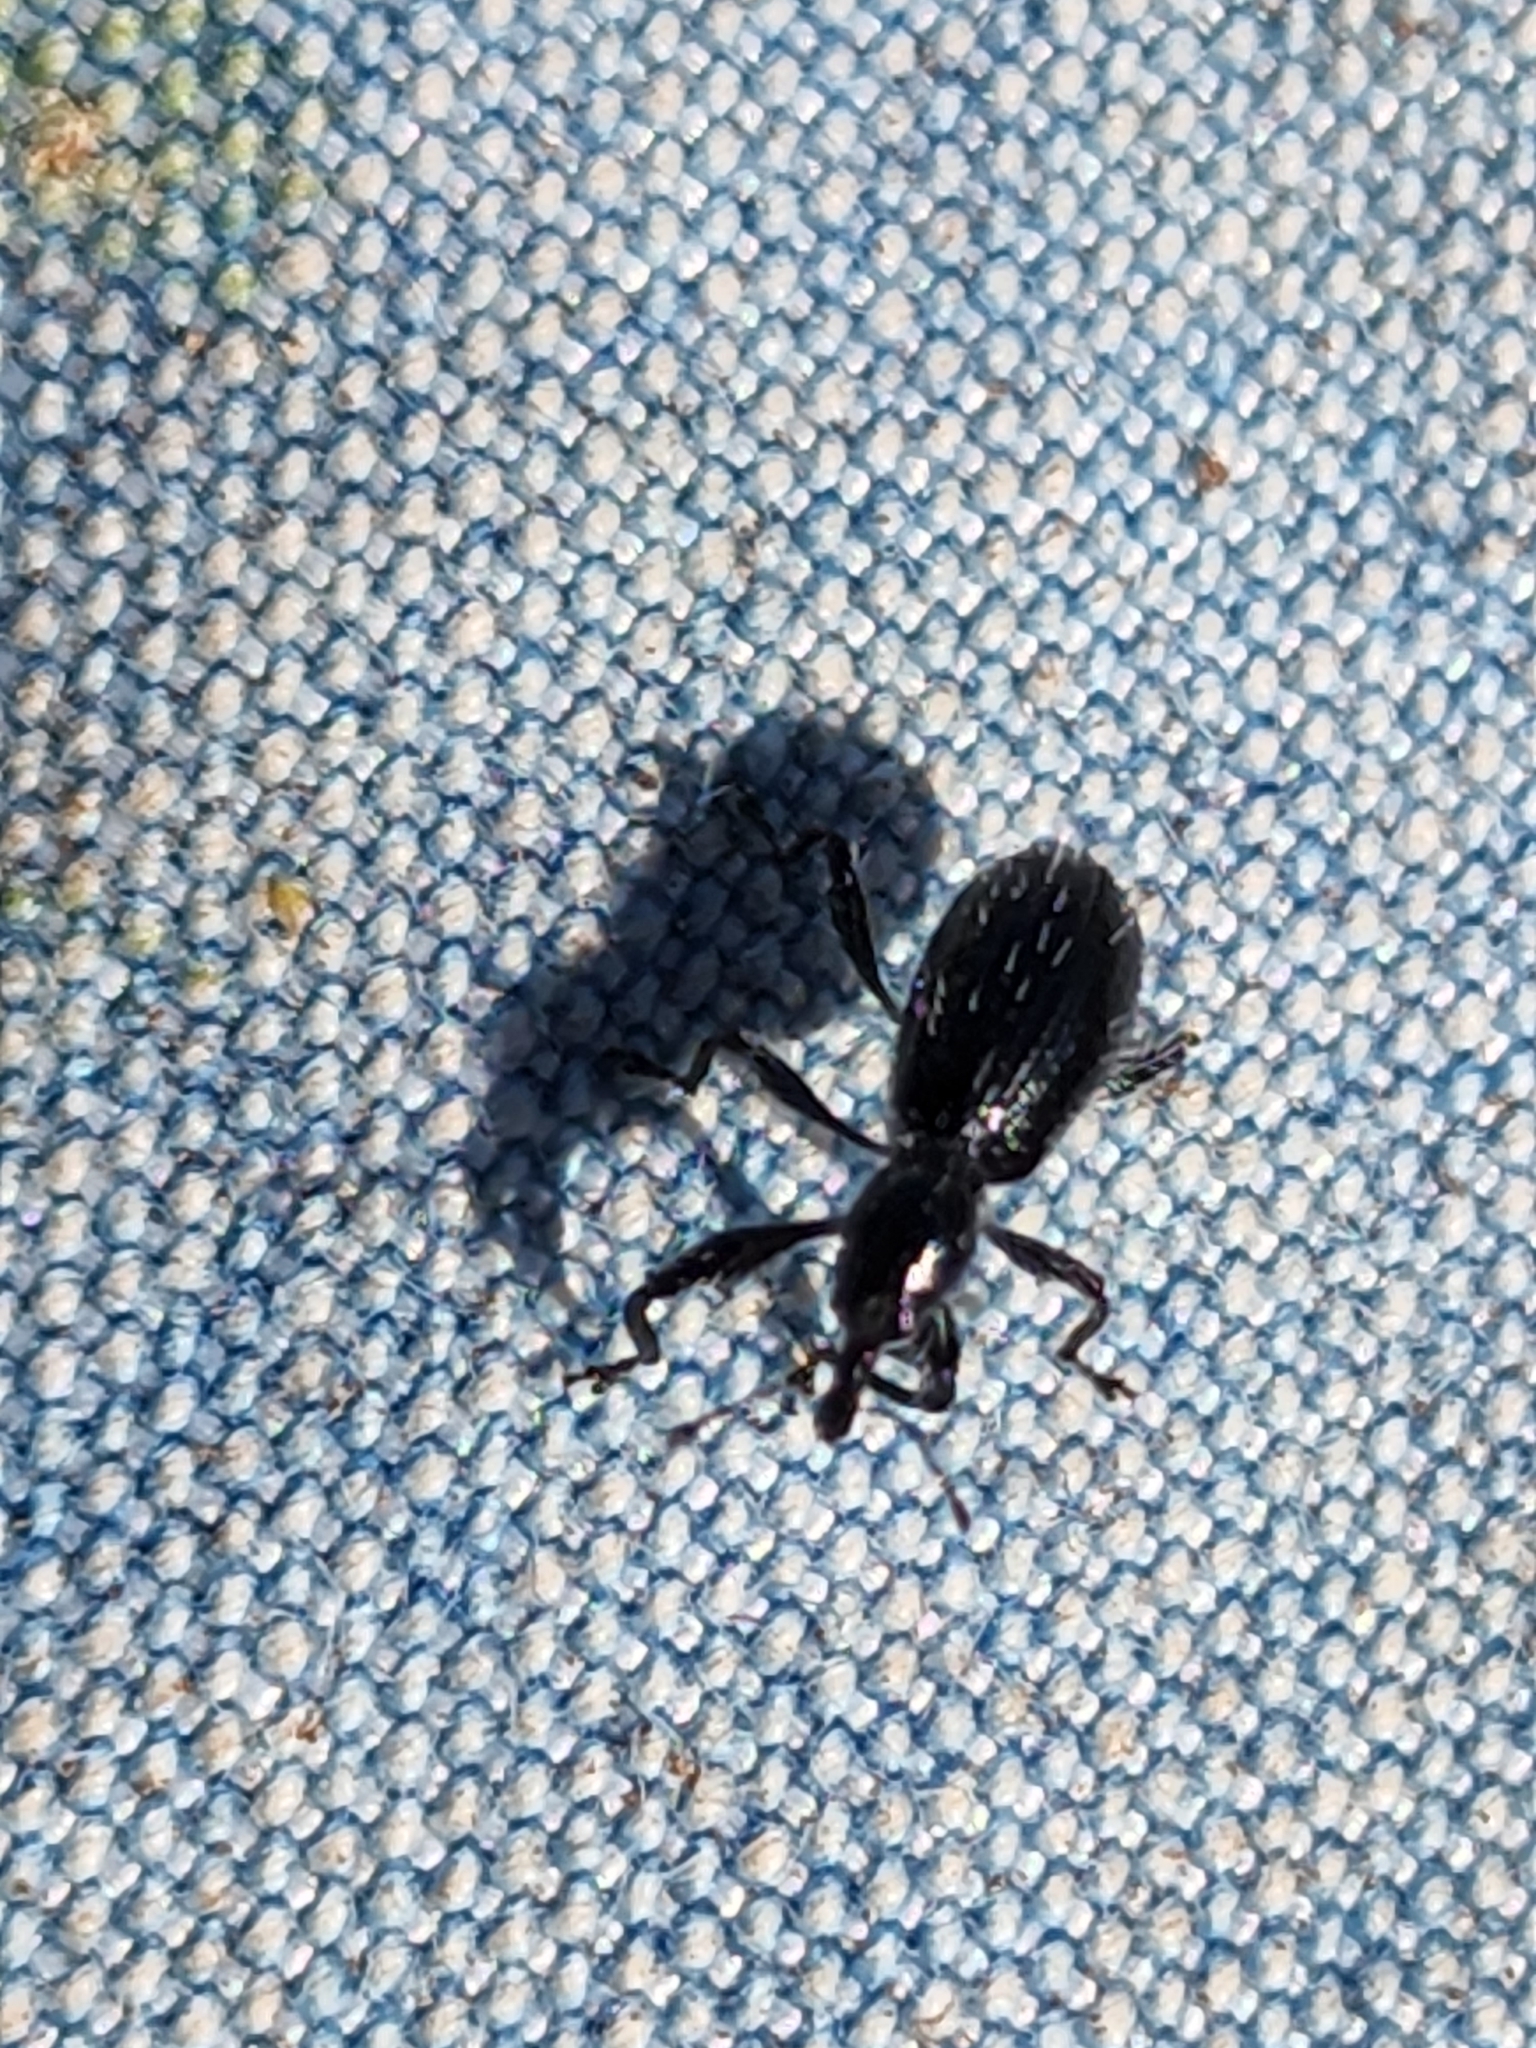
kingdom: Animalia
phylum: Arthropoda
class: Insecta
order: Coleoptera
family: Curculionidae
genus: Otidocephalus
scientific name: Otidocephalus floridanus
